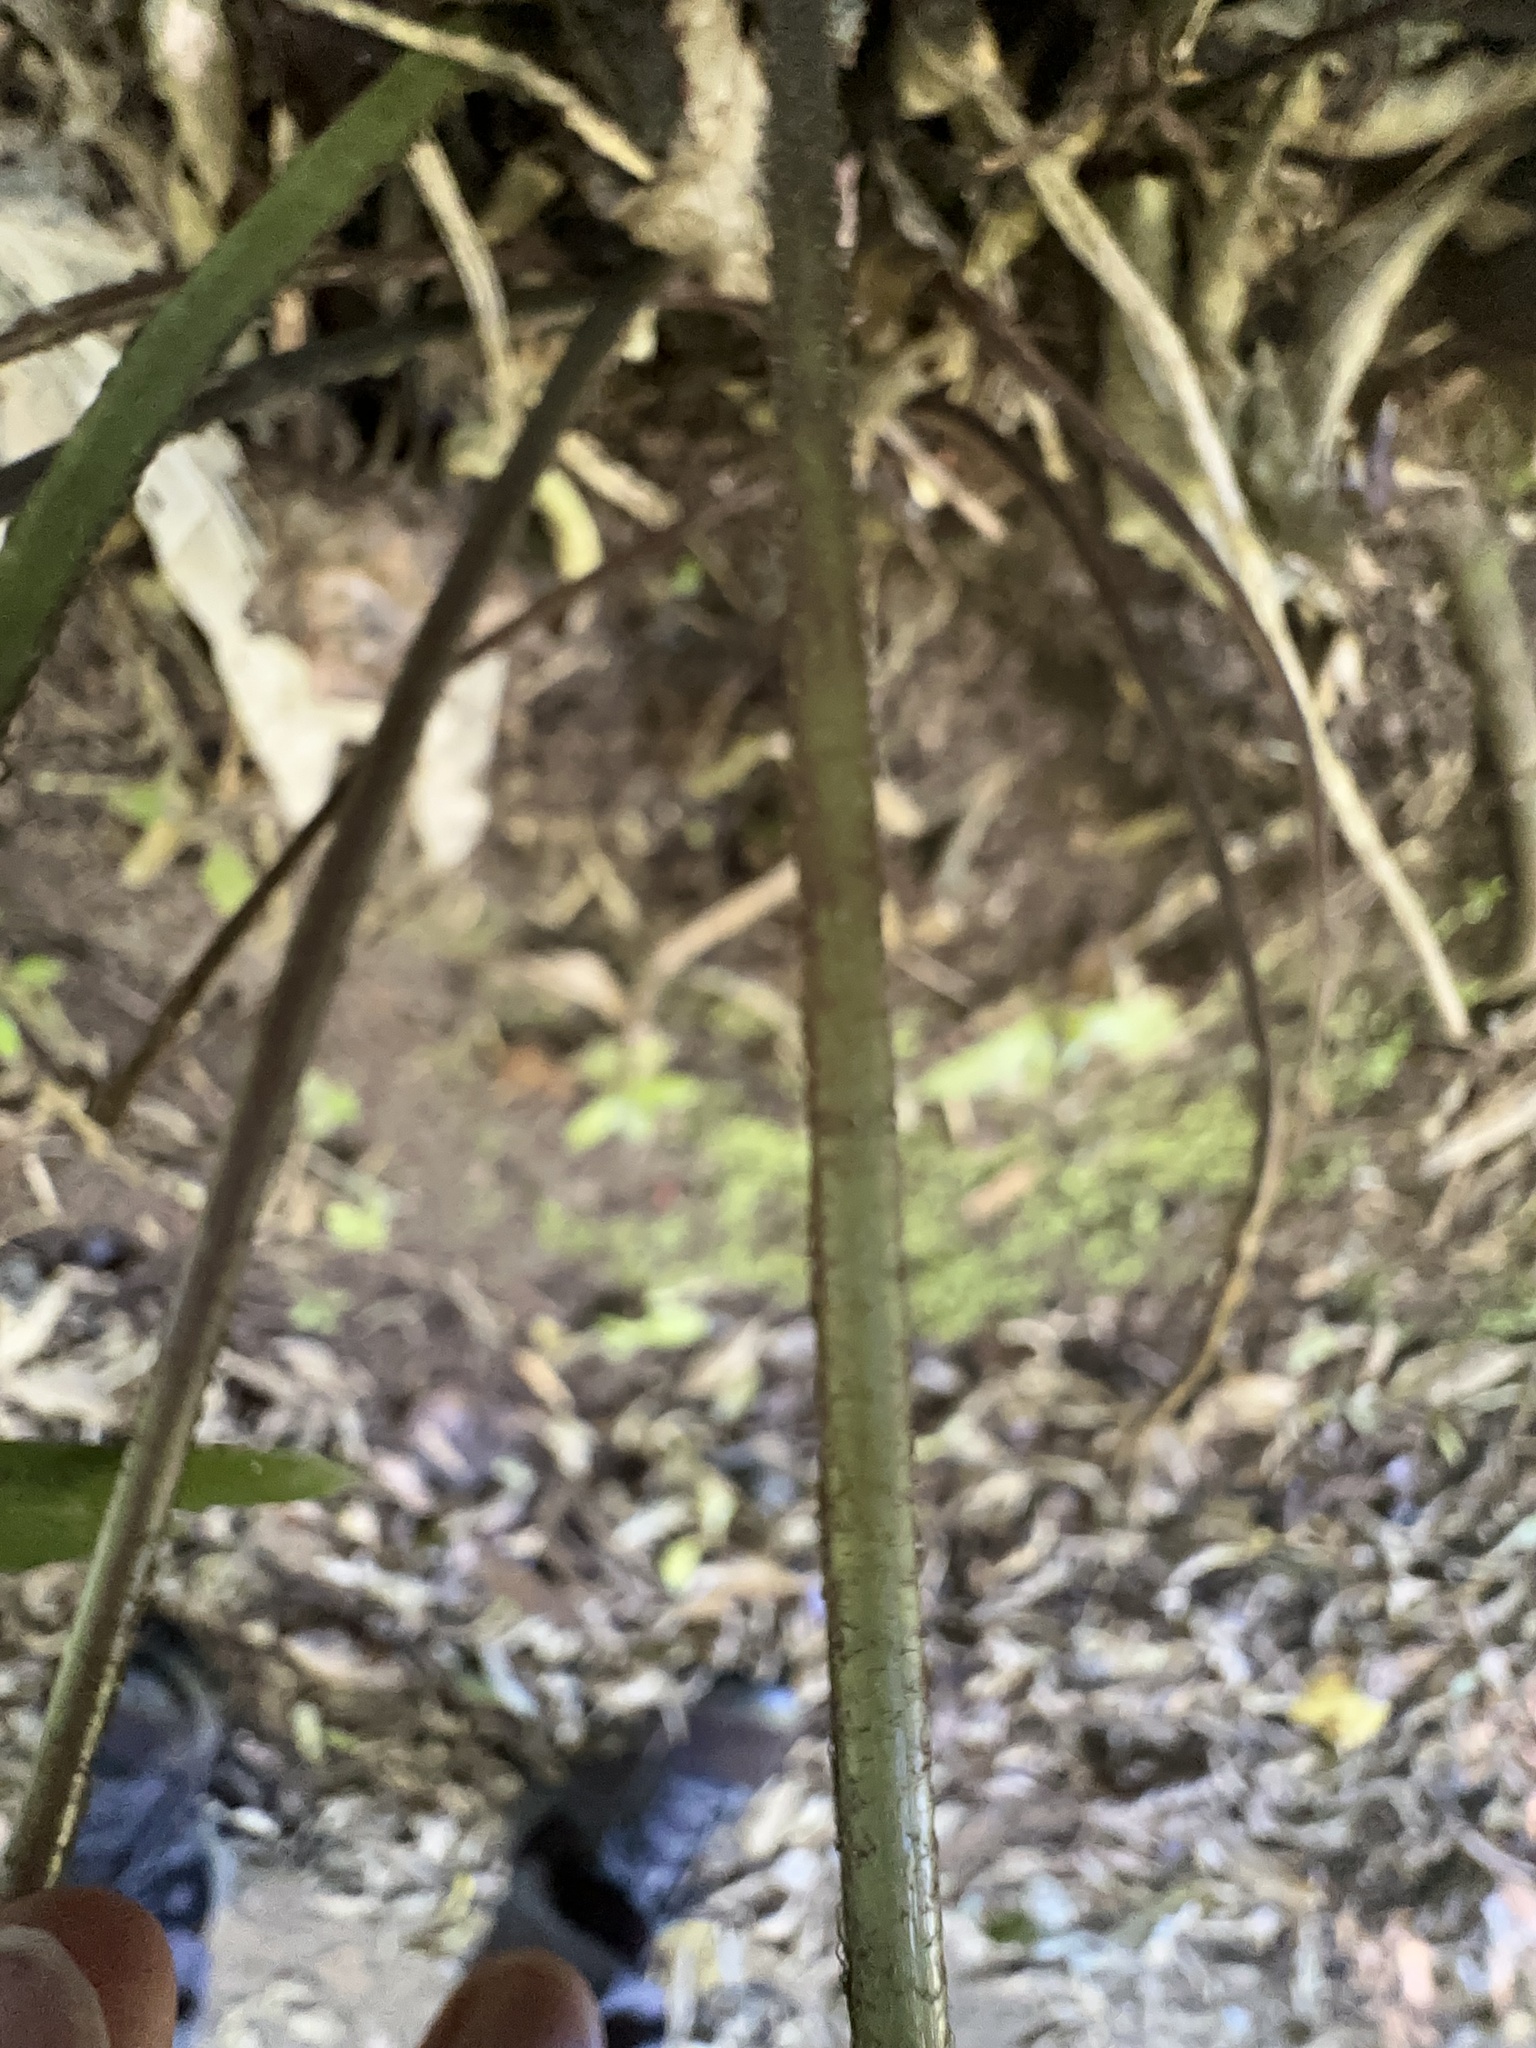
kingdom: Plantae
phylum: Tracheophyta
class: Polypodiopsida
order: Polypodiales
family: Aspleniaceae
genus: Asplenium
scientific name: Asplenium oblongifolium
